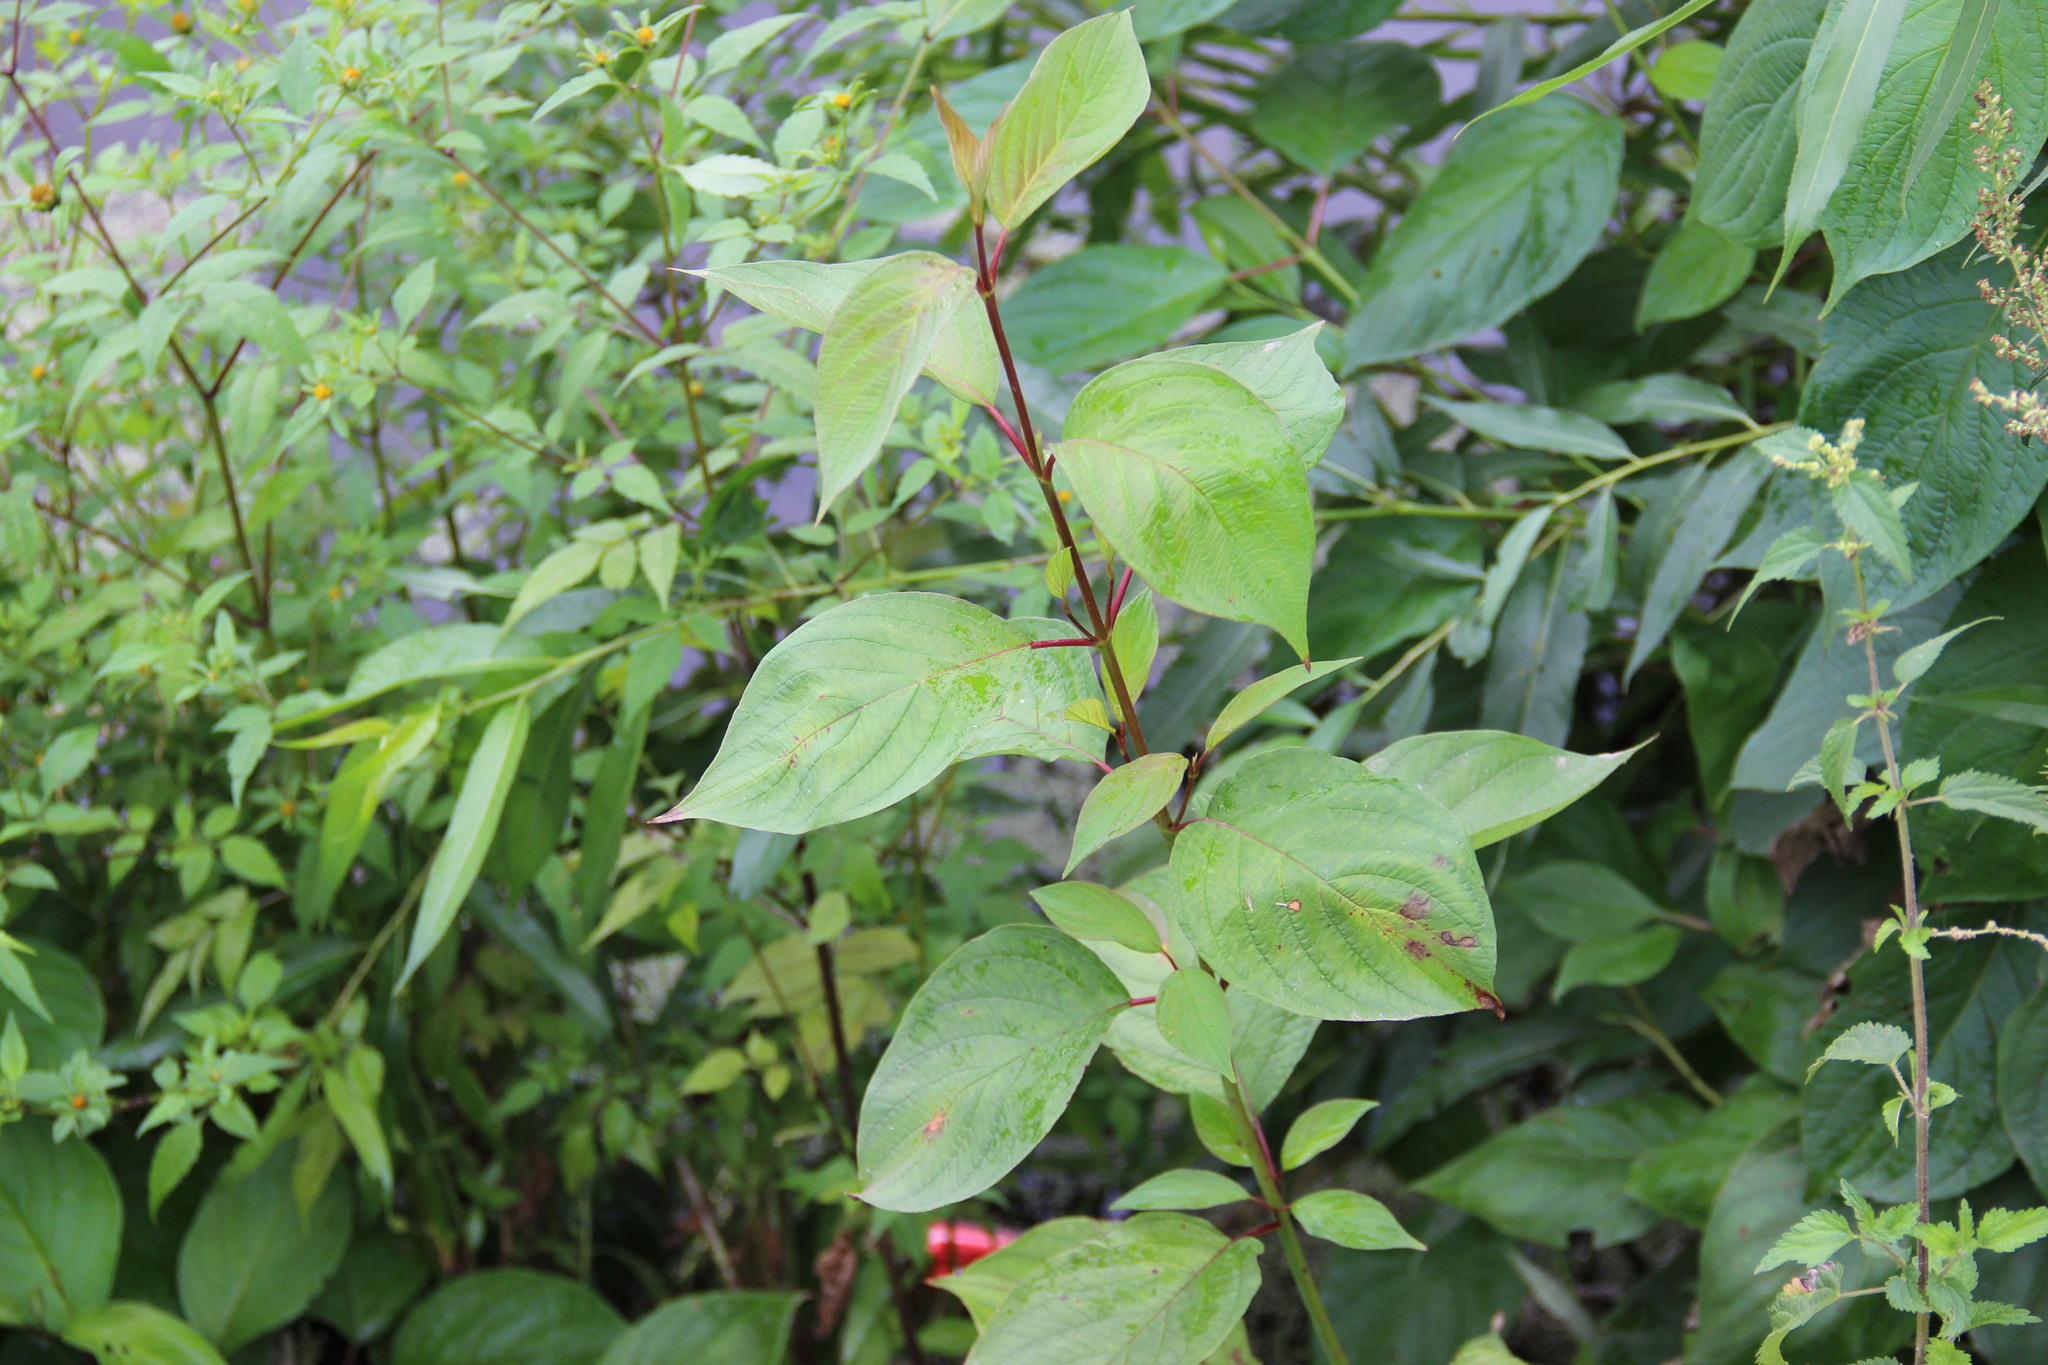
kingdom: Plantae
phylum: Tracheophyta
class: Magnoliopsida
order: Cornales
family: Cornaceae
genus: Cornus
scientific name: Cornus alba
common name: White dogwood
